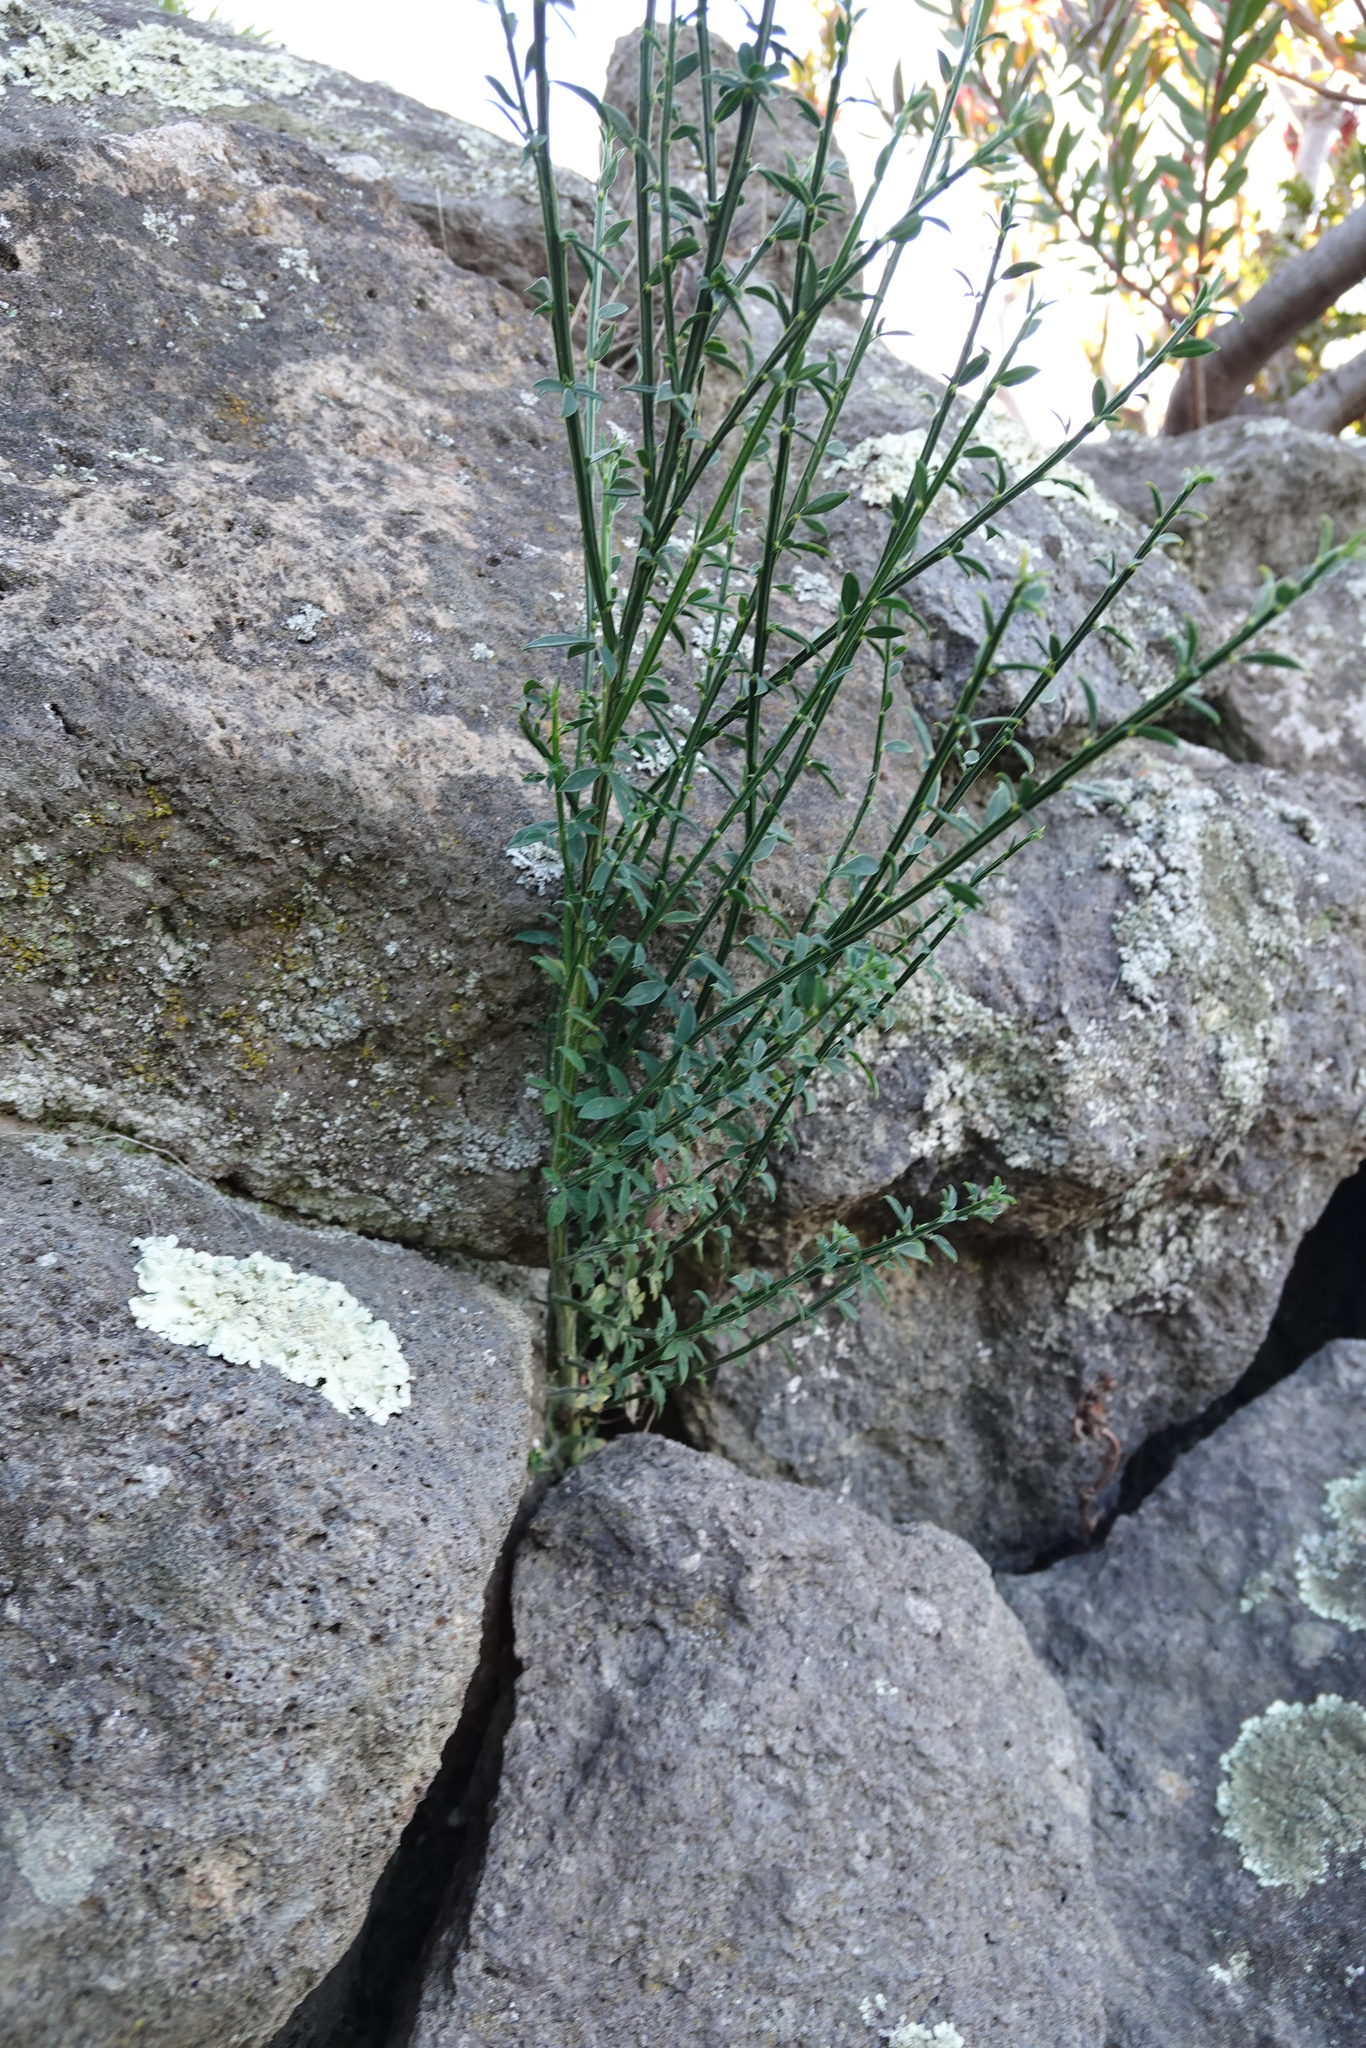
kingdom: Plantae
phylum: Tracheophyta
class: Magnoliopsida
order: Fabales
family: Fabaceae
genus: Cytisus
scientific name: Cytisus scoparius
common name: Scotch broom
